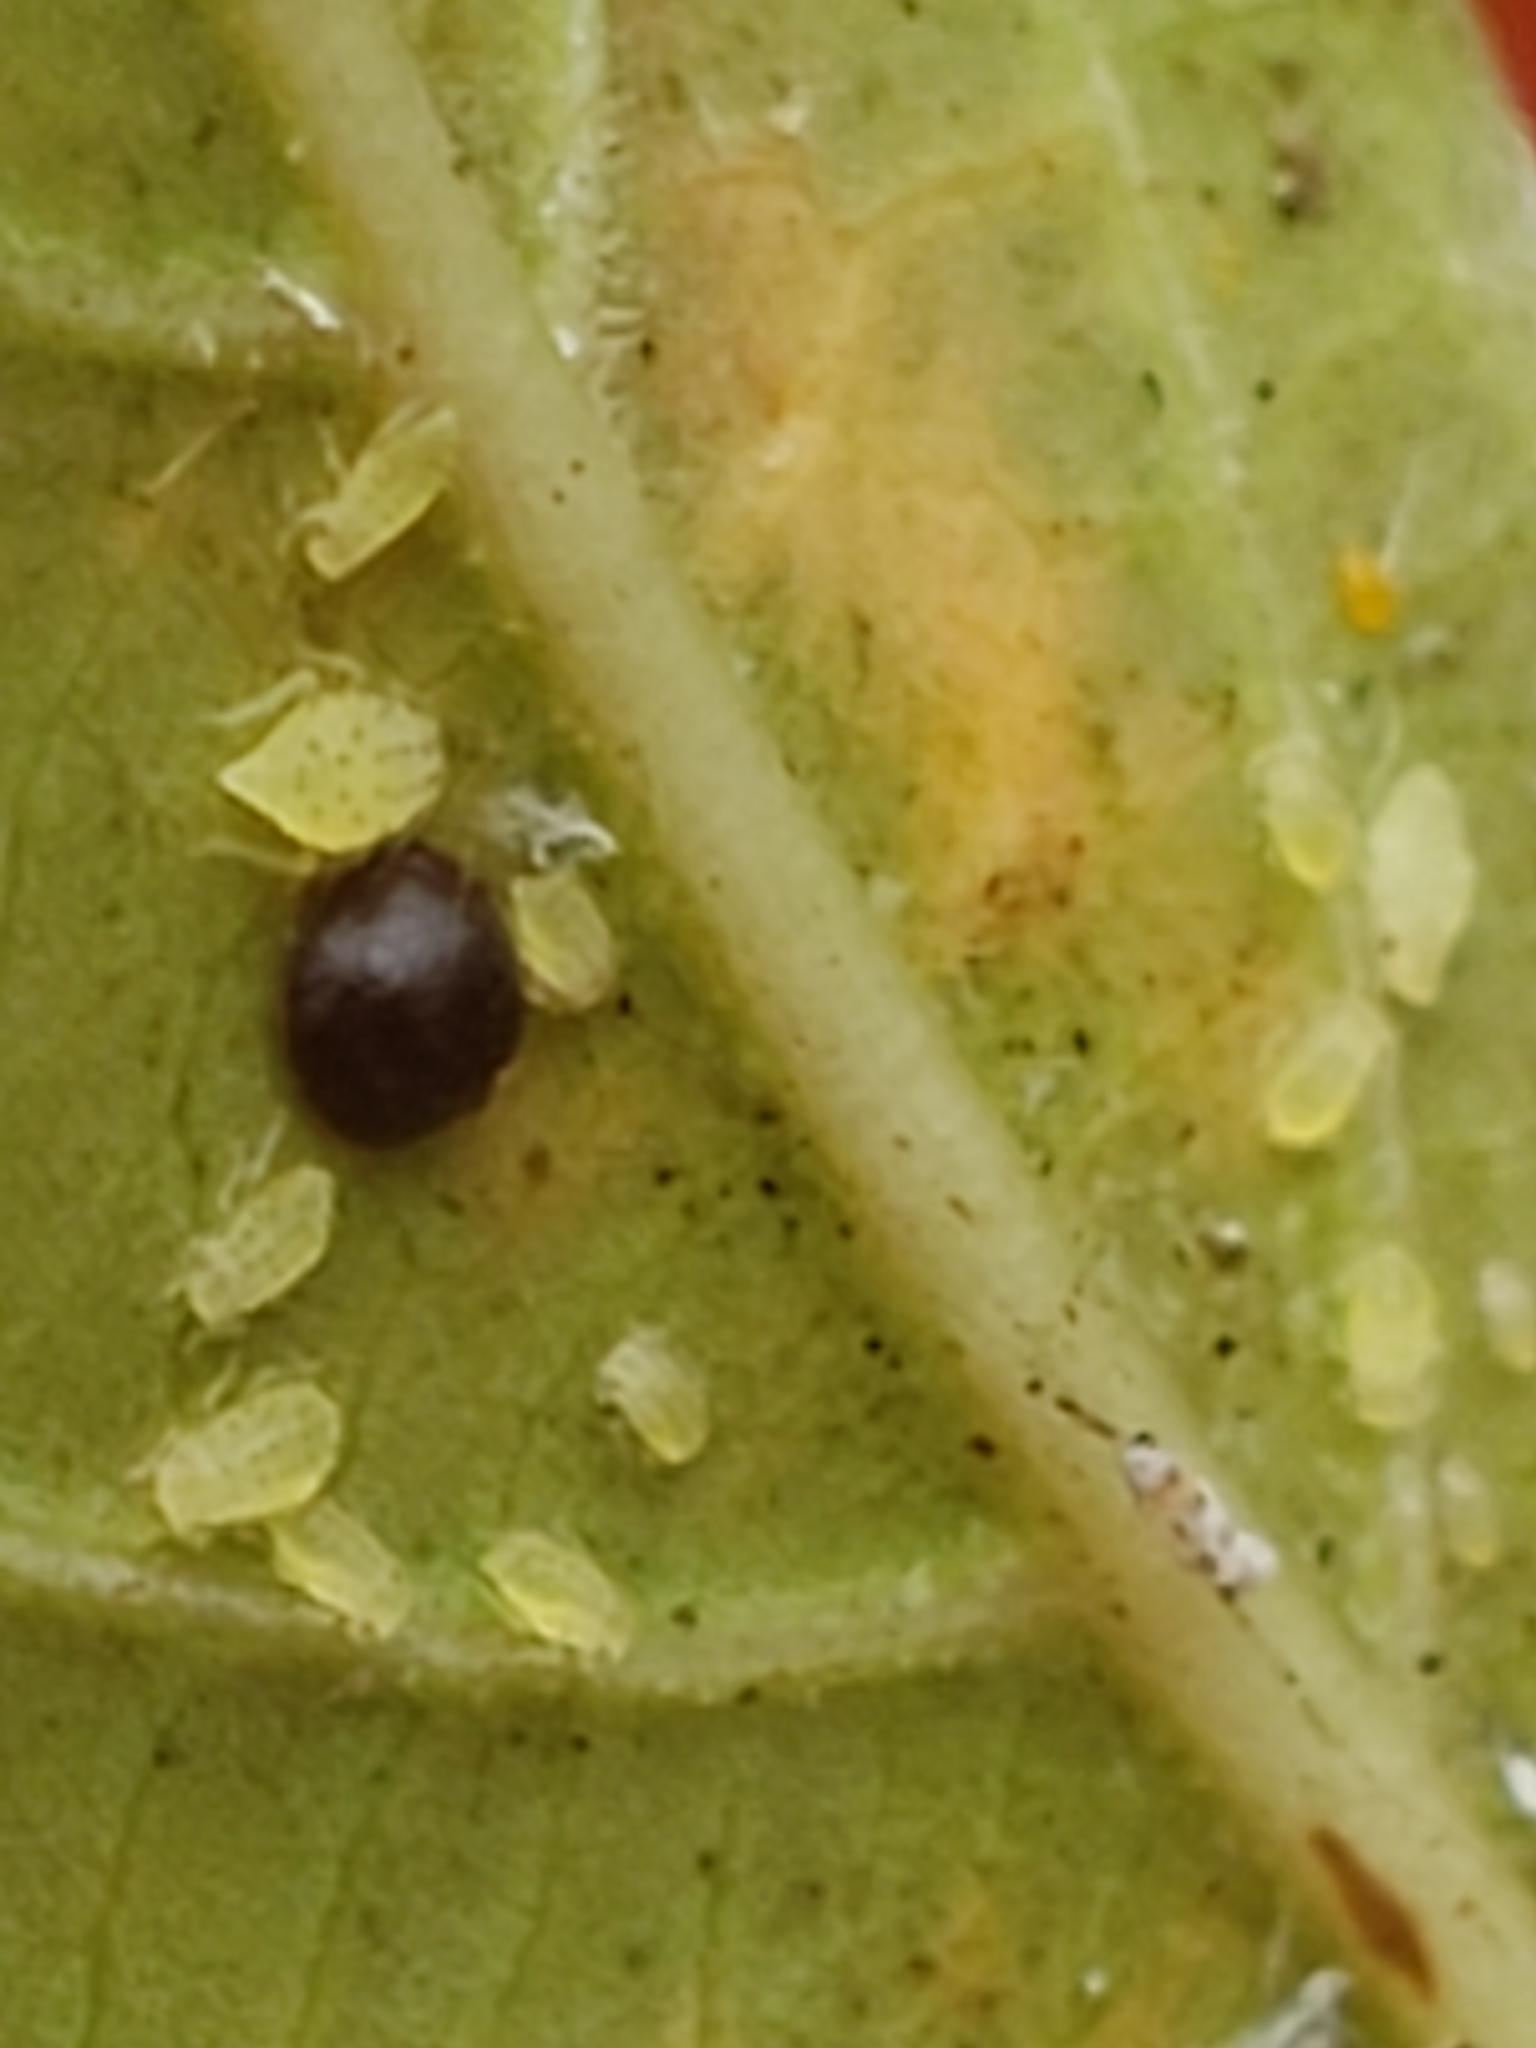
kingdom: Animalia
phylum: Arthropoda
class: Insecta
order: Hemiptera
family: Aphididae
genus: Sarucallis
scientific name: Sarucallis kahawaluokalani
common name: Crapemyrtle aphid
